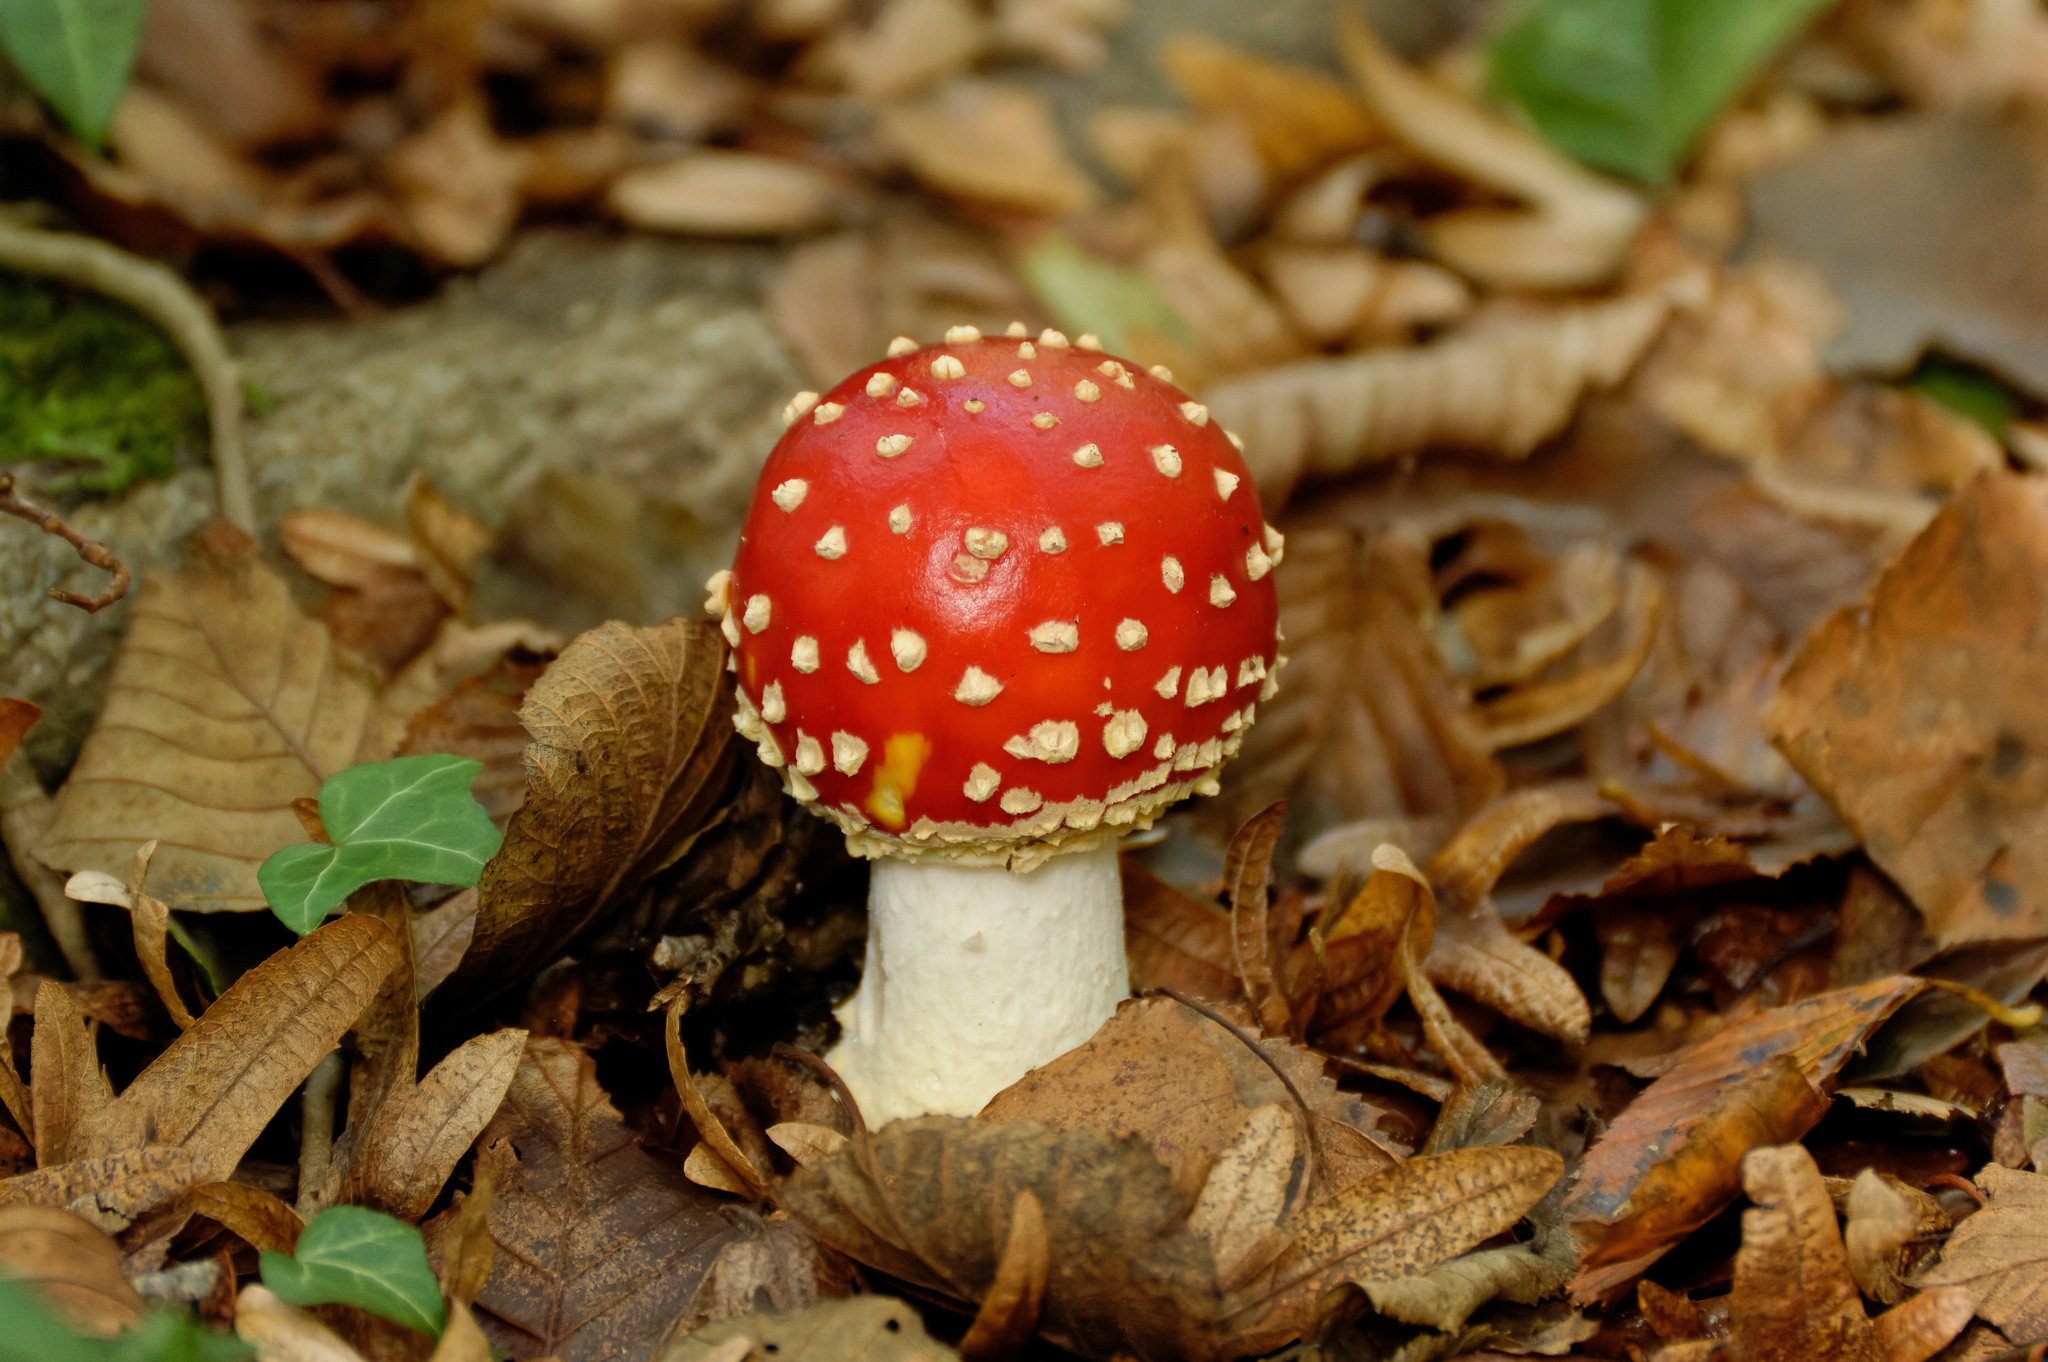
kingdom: Fungi
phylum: Basidiomycota
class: Agaricomycetes
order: Agaricales
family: Amanitaceae
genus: Amanita
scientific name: Amanita muscaria
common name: Fly agaric
